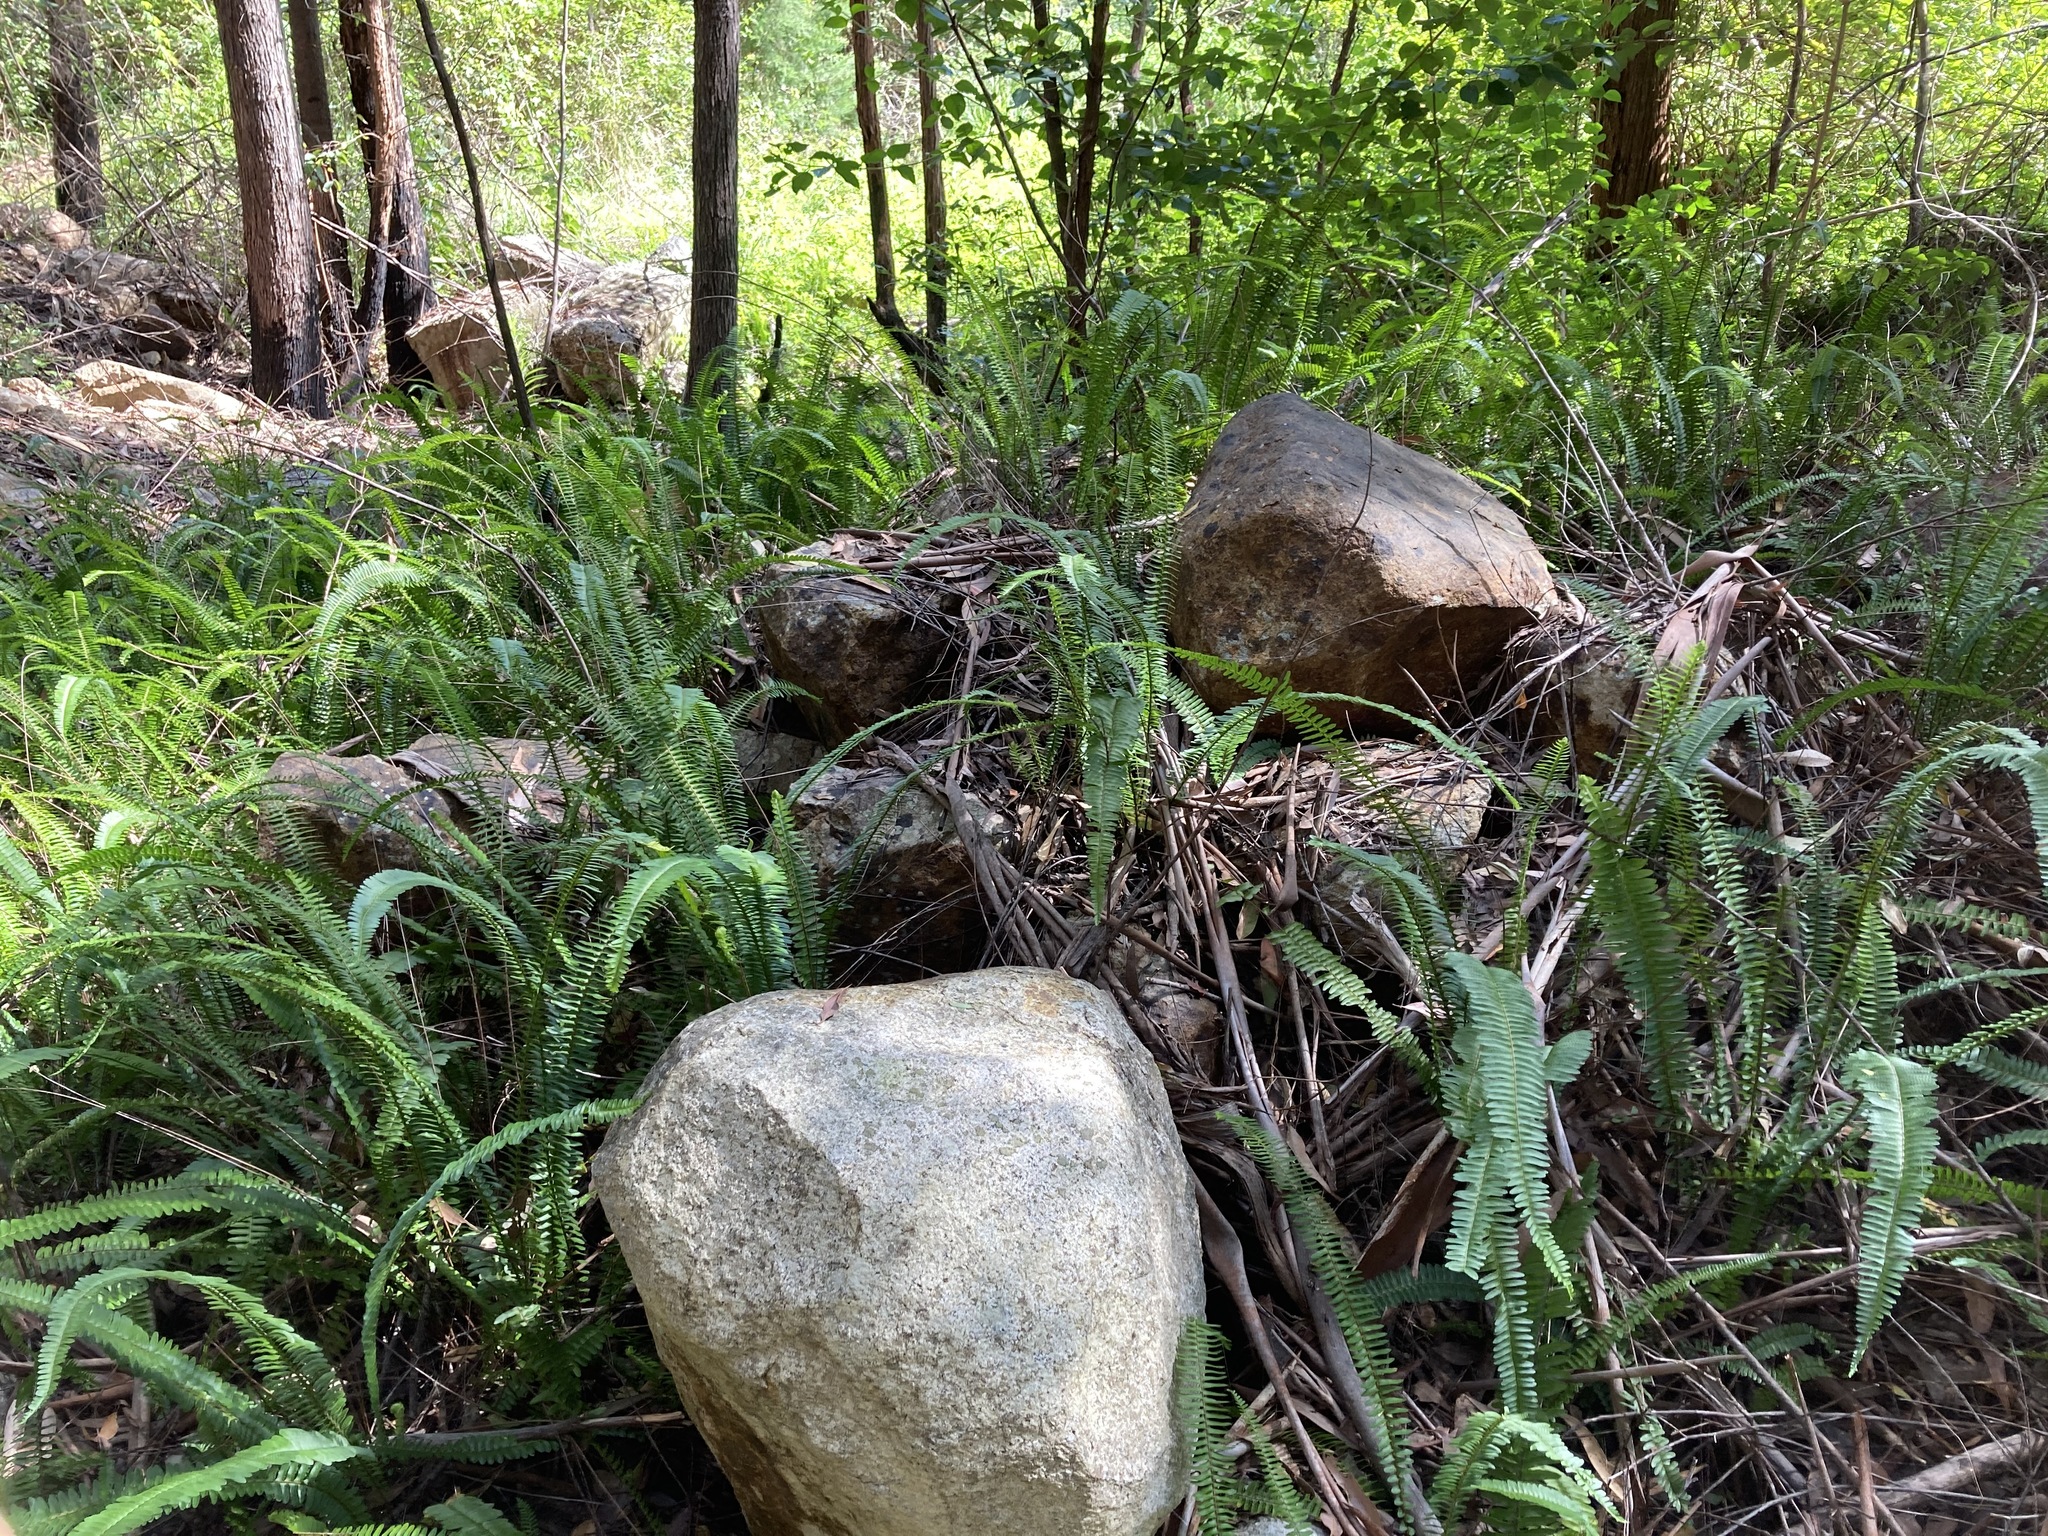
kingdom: Plantae
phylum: Tracheophyta
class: Polypodiopsida
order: Polypodiales
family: Nephrolepidaceae
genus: Nephrolepis
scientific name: Nephrolepis cordifolia
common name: Narrow swordfern
